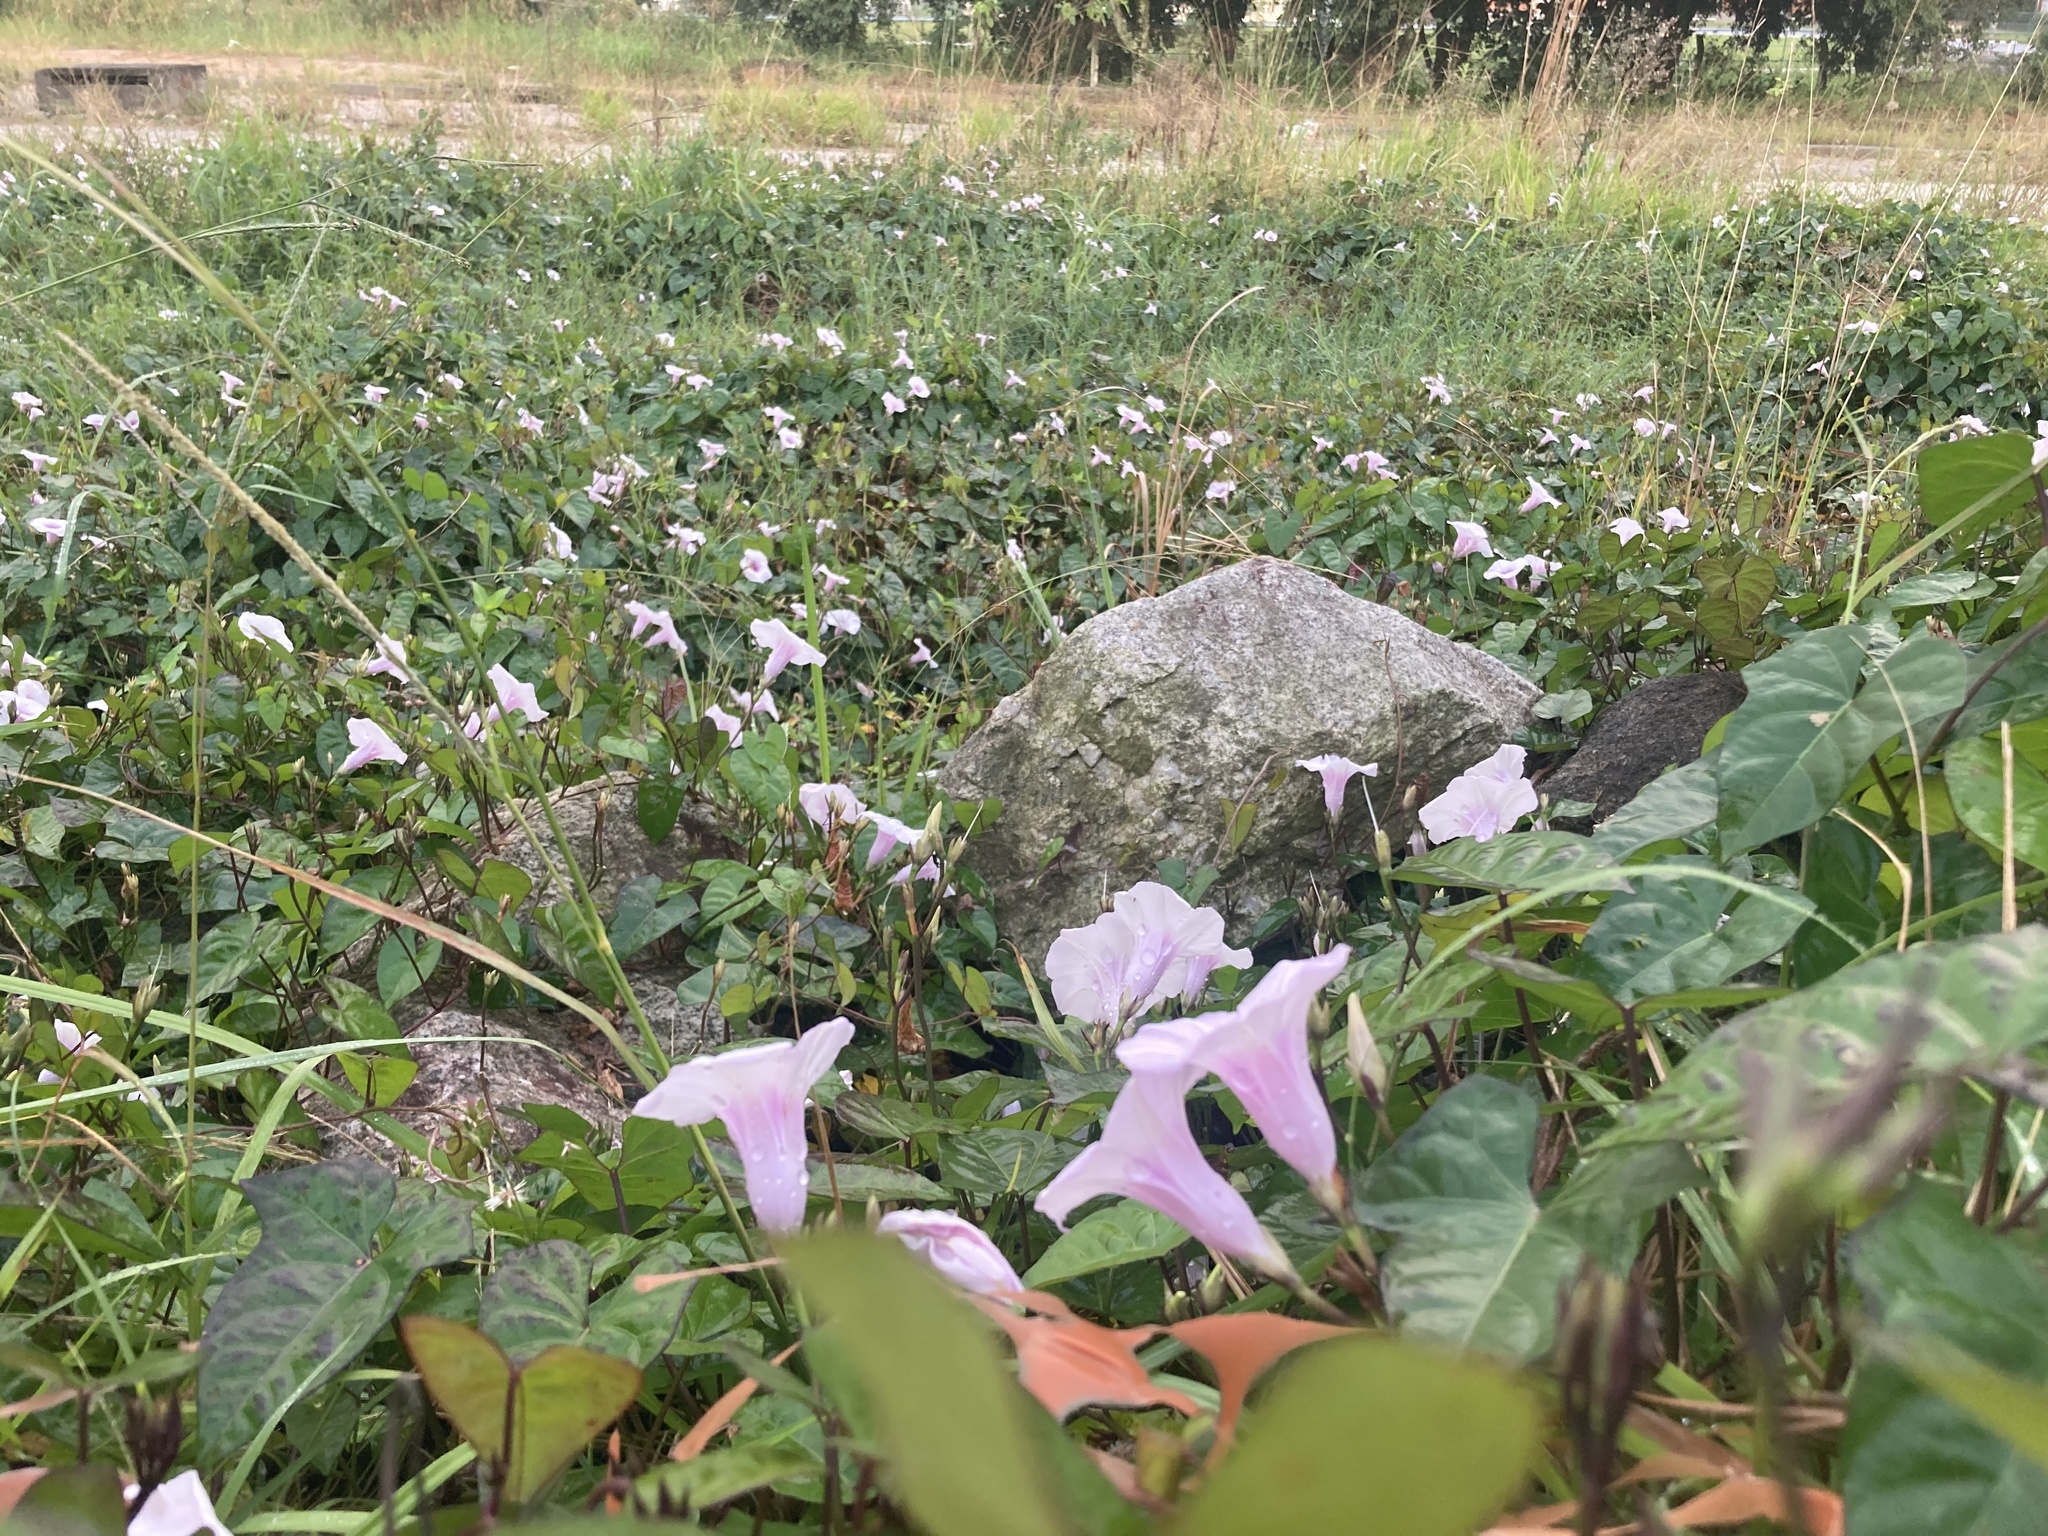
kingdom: Plantae
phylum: Tracheophyta
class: Magnoliopsida
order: Solanales
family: Convolvulaceae
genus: Ipomoea
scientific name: Ipomoea tiliacea
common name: Wild potato vine
